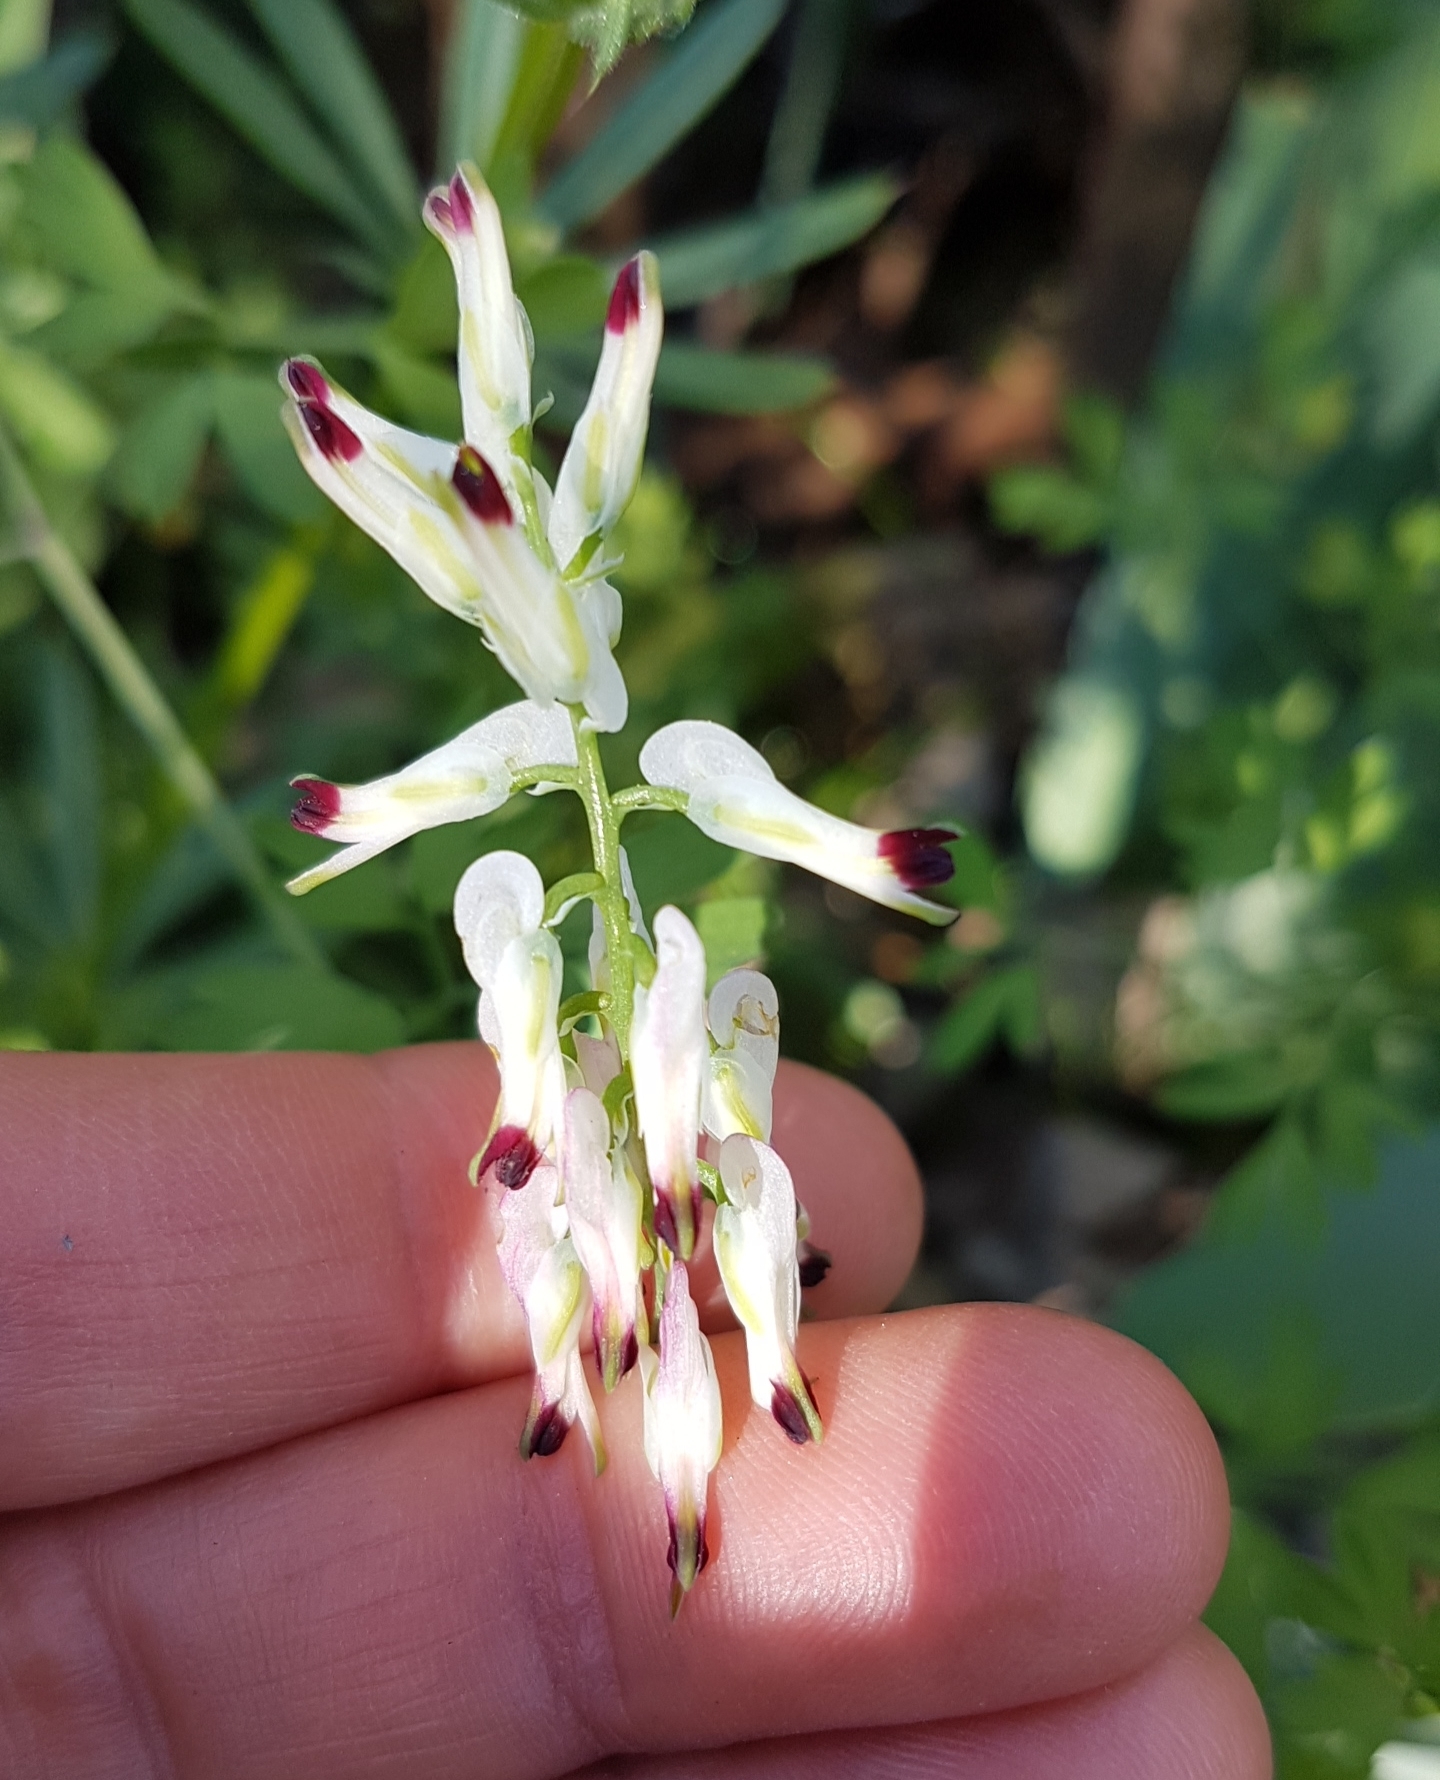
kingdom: Plantae
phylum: Tracheophyta
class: Magnoliopsida
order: Ranunculales
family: Papaveraceae
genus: Fumaria
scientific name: Fumaria capreolata
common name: White ramping-fumitory
